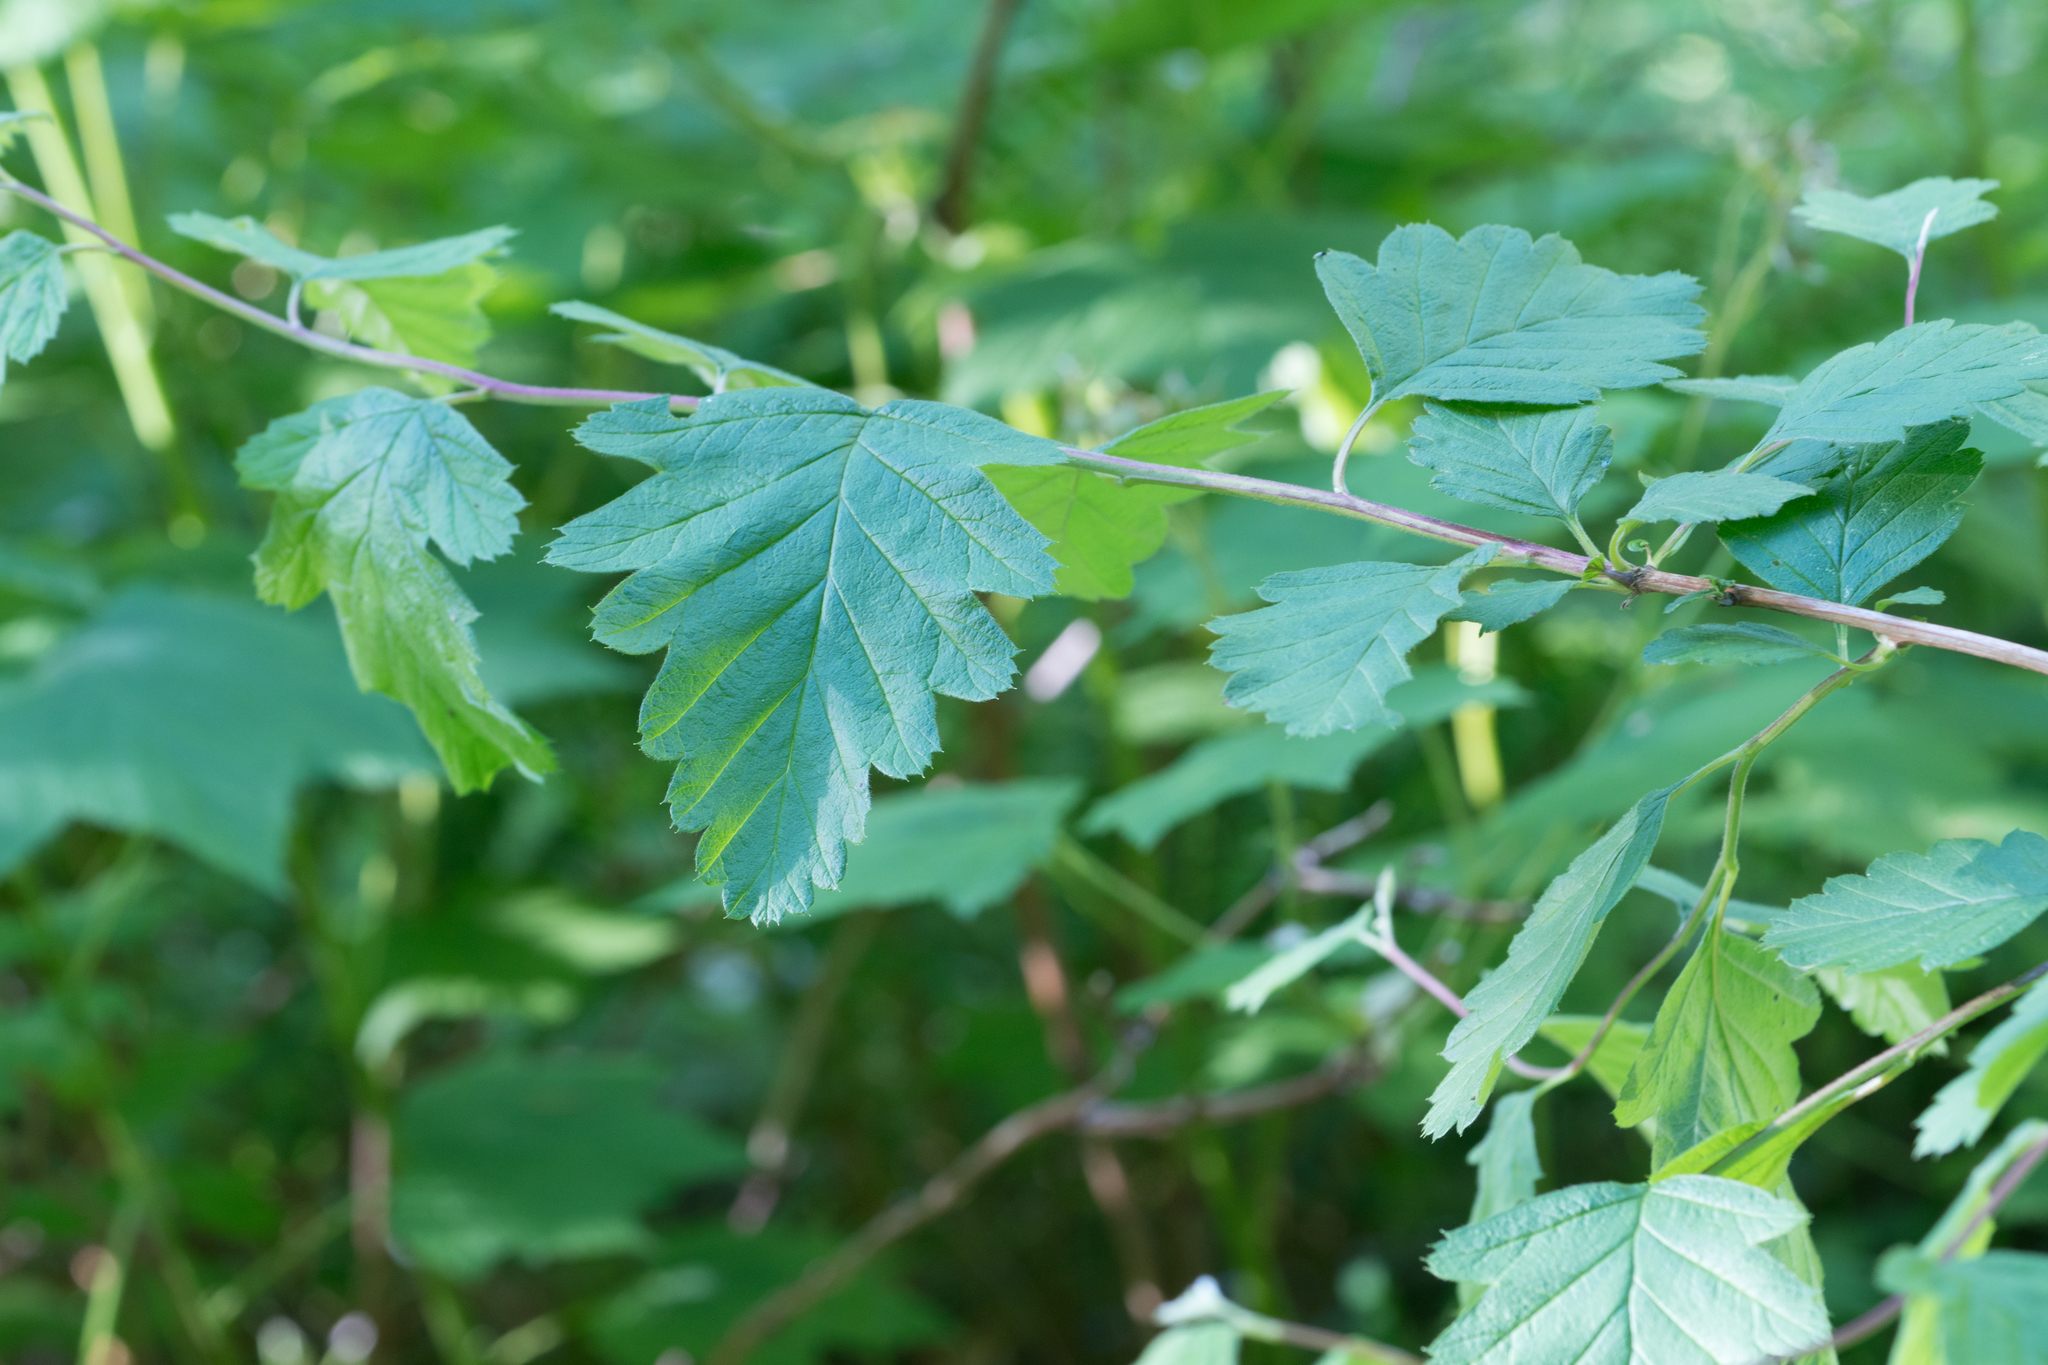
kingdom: Plantae
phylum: Tracheophyta
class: Magnoliopsida
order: Rosales
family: Rosaceae
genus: Holodiscus
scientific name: Holodiscus discolor
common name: Oceanspray
